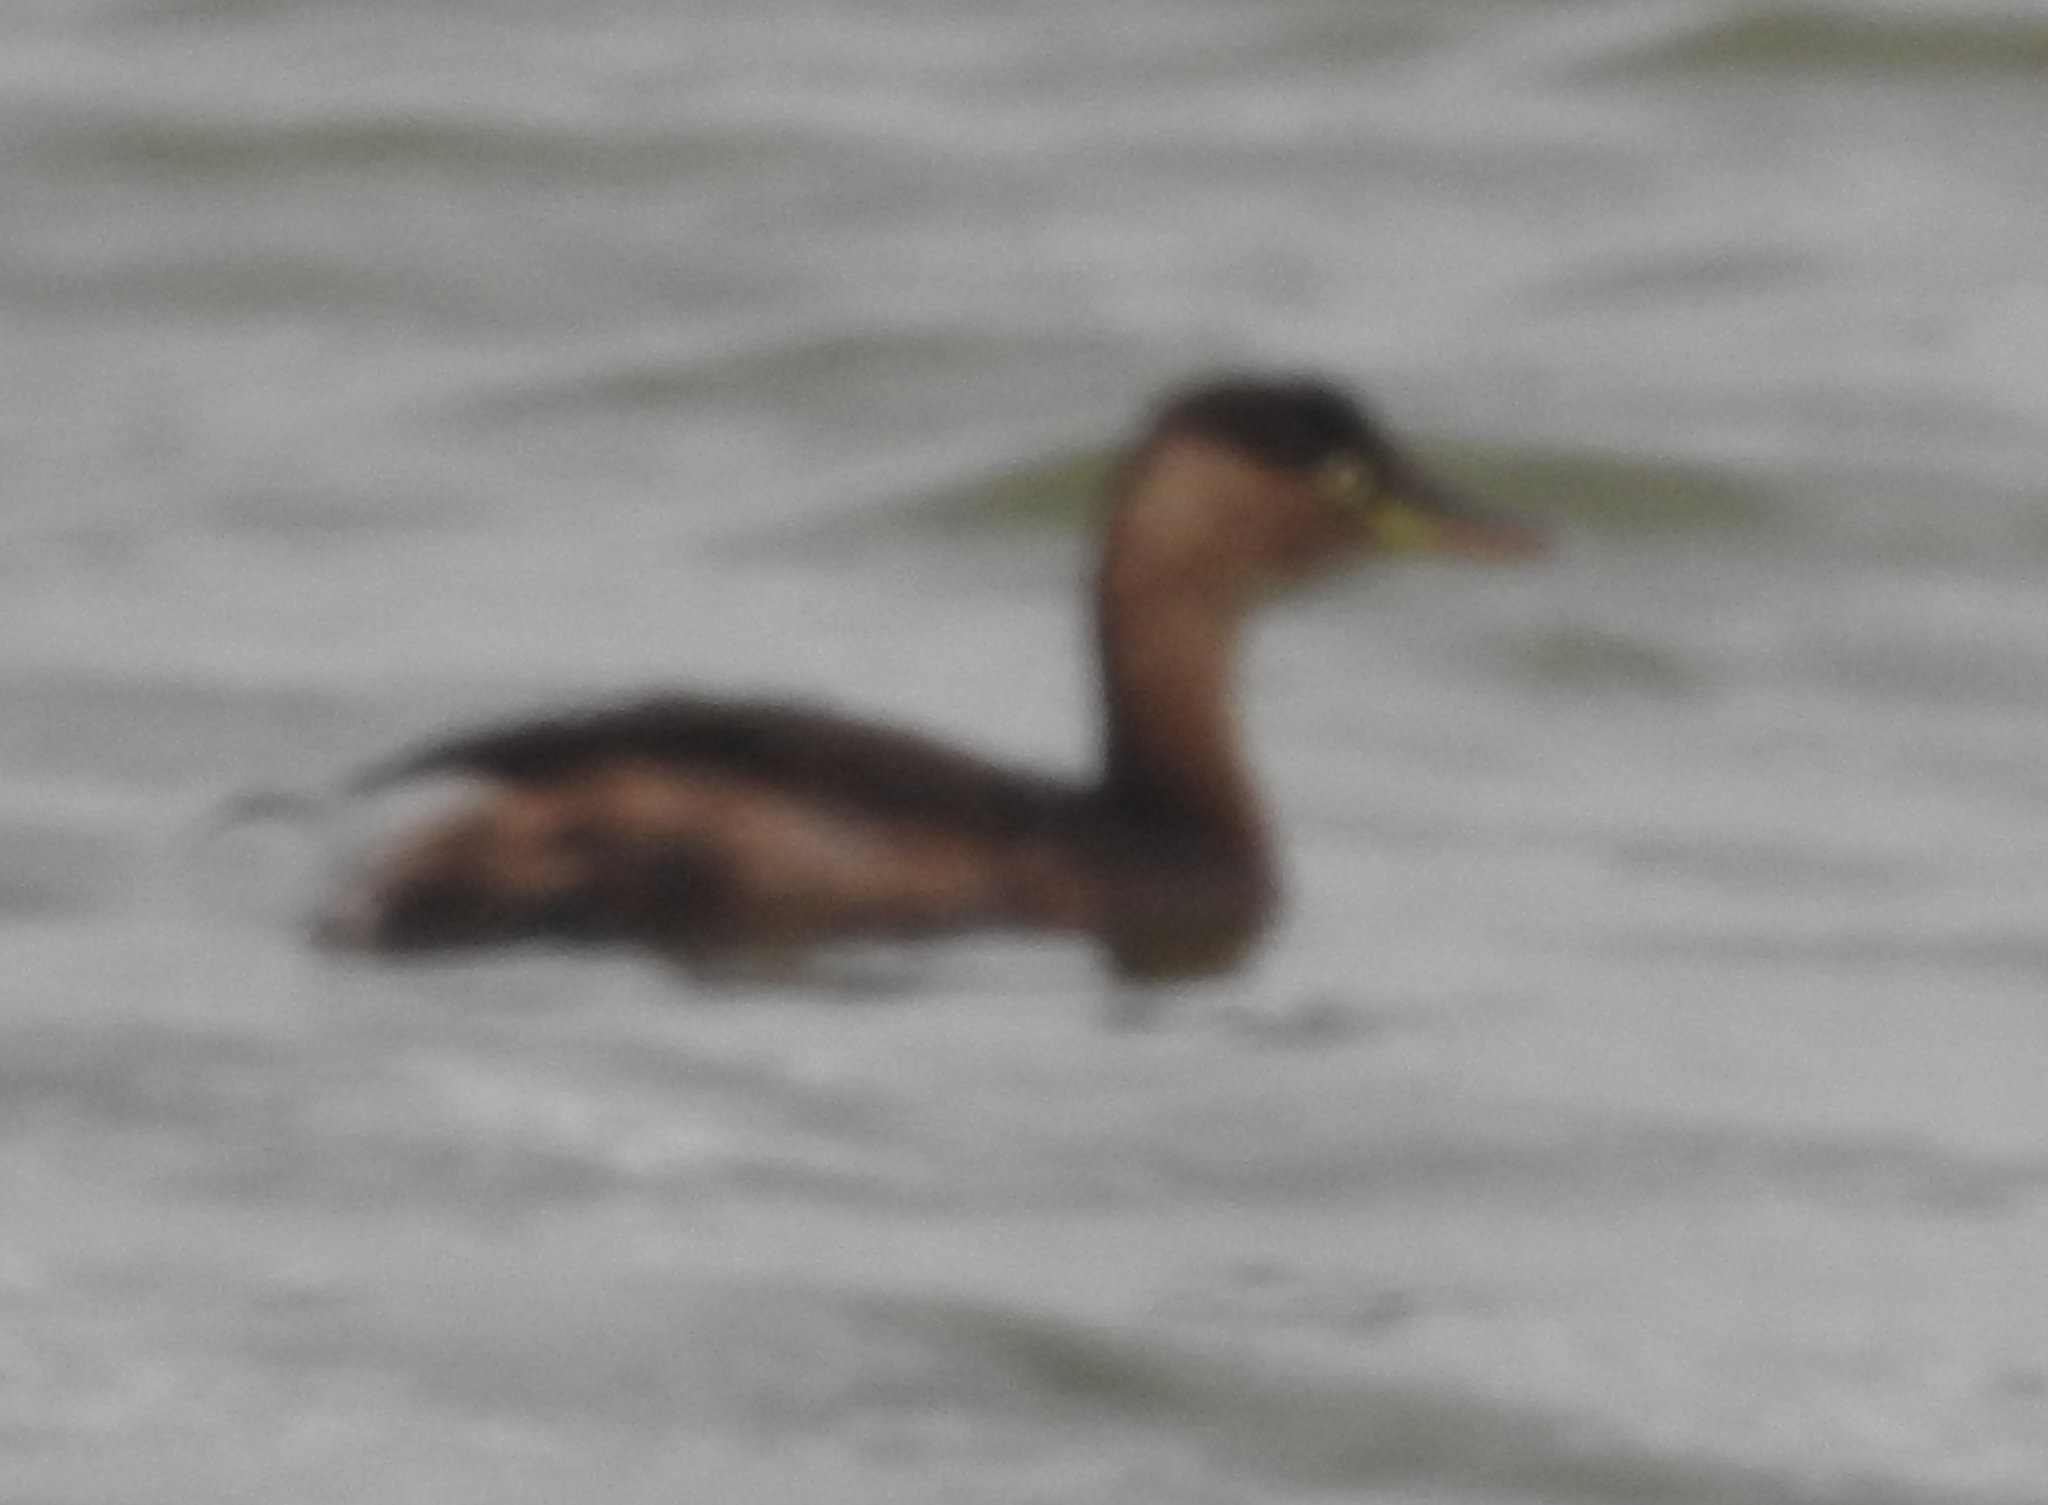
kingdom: Animalia
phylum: Chordata
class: Aves
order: Podicipediformes
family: Podicipedidae
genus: Tachybaptus
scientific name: Tachybaptus ruficollis
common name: Little grebe
